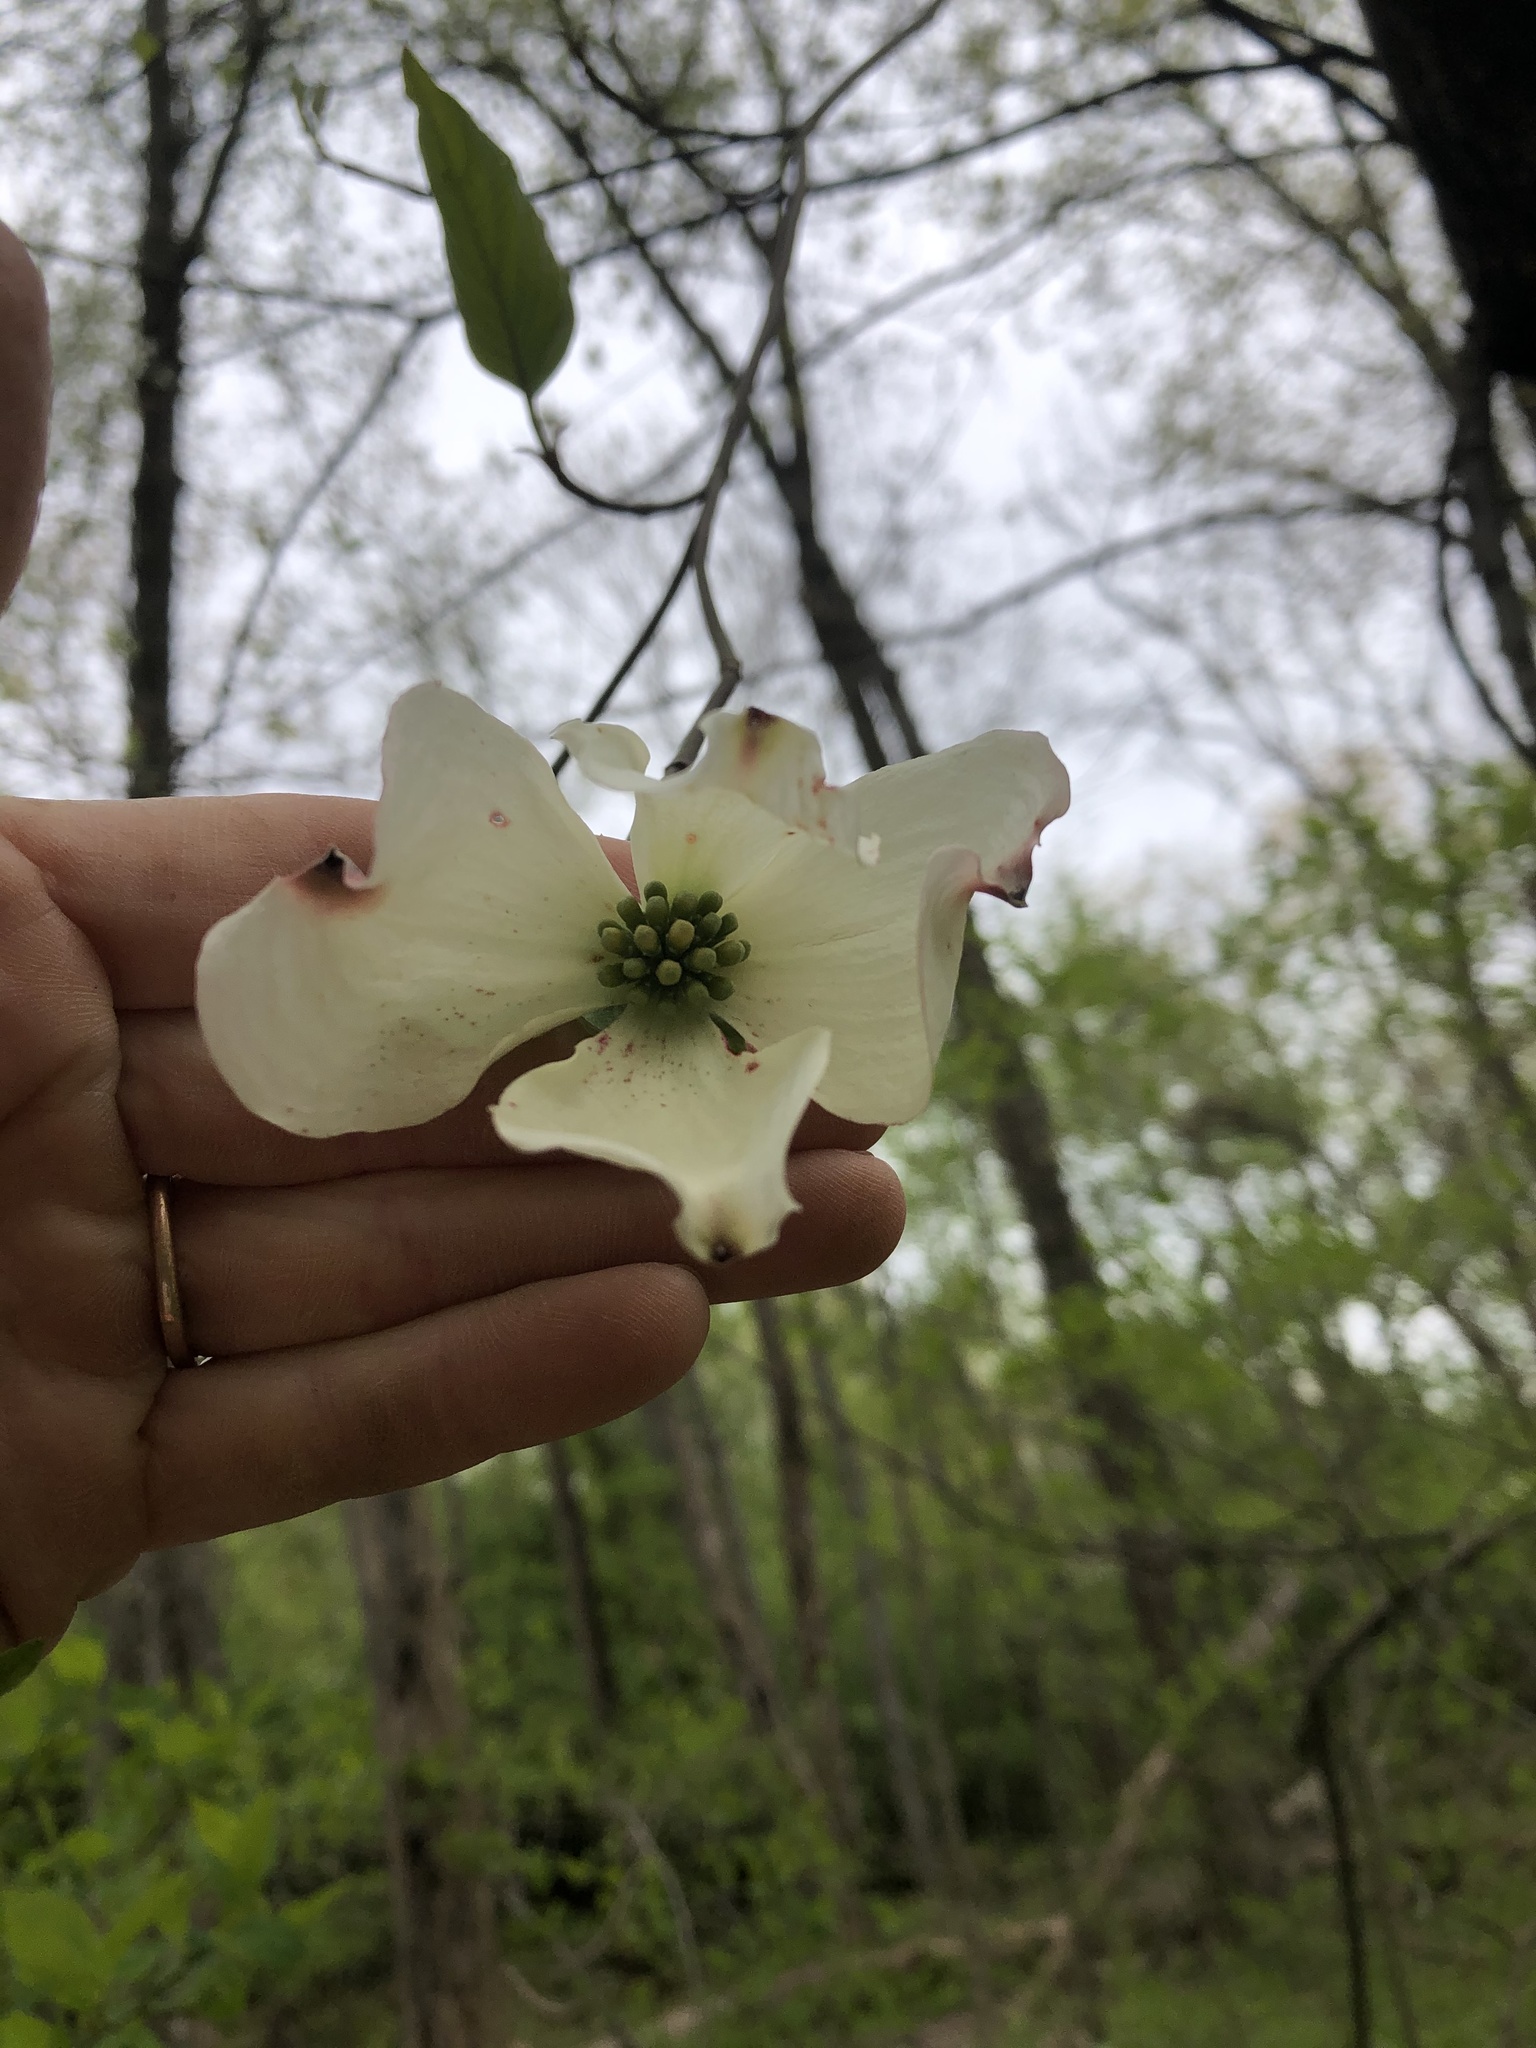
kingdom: Plantae
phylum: Tracheophyta
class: Magnoliopsida
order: Cornales
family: Cornaceae
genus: Cornus
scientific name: Cornus florida
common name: Flowering dogwood
